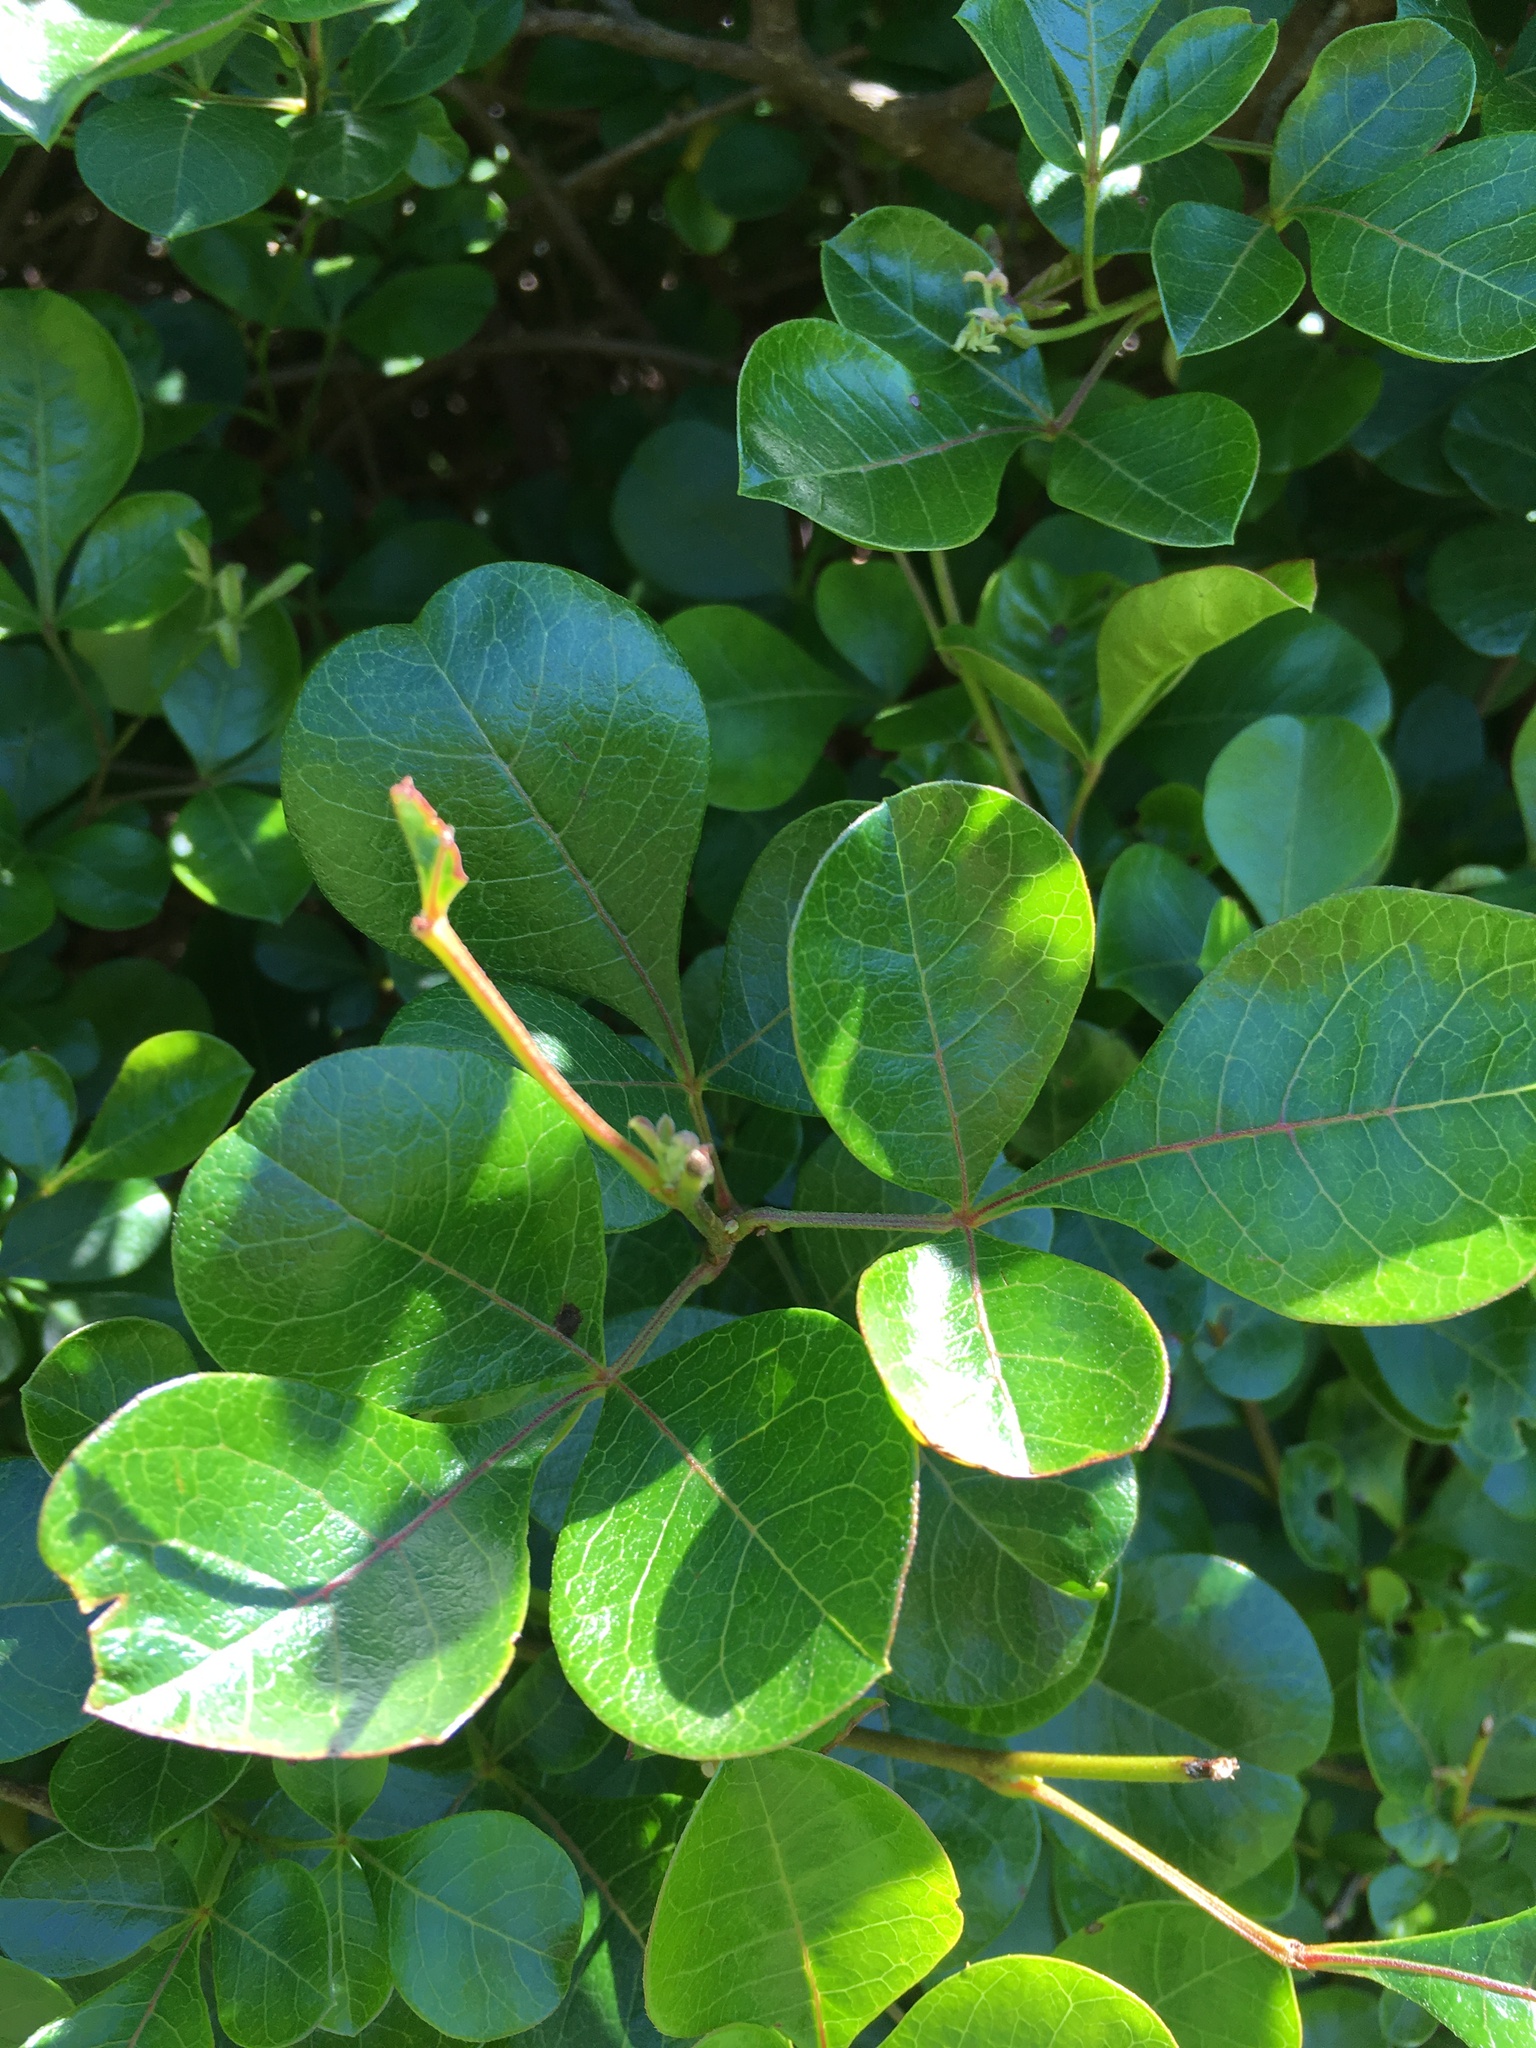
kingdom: Plantae
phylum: Tracheophyta
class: Magnoliopsida
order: Sapindales
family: Anacardiaceae
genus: Searsia
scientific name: Searsia laevigata
